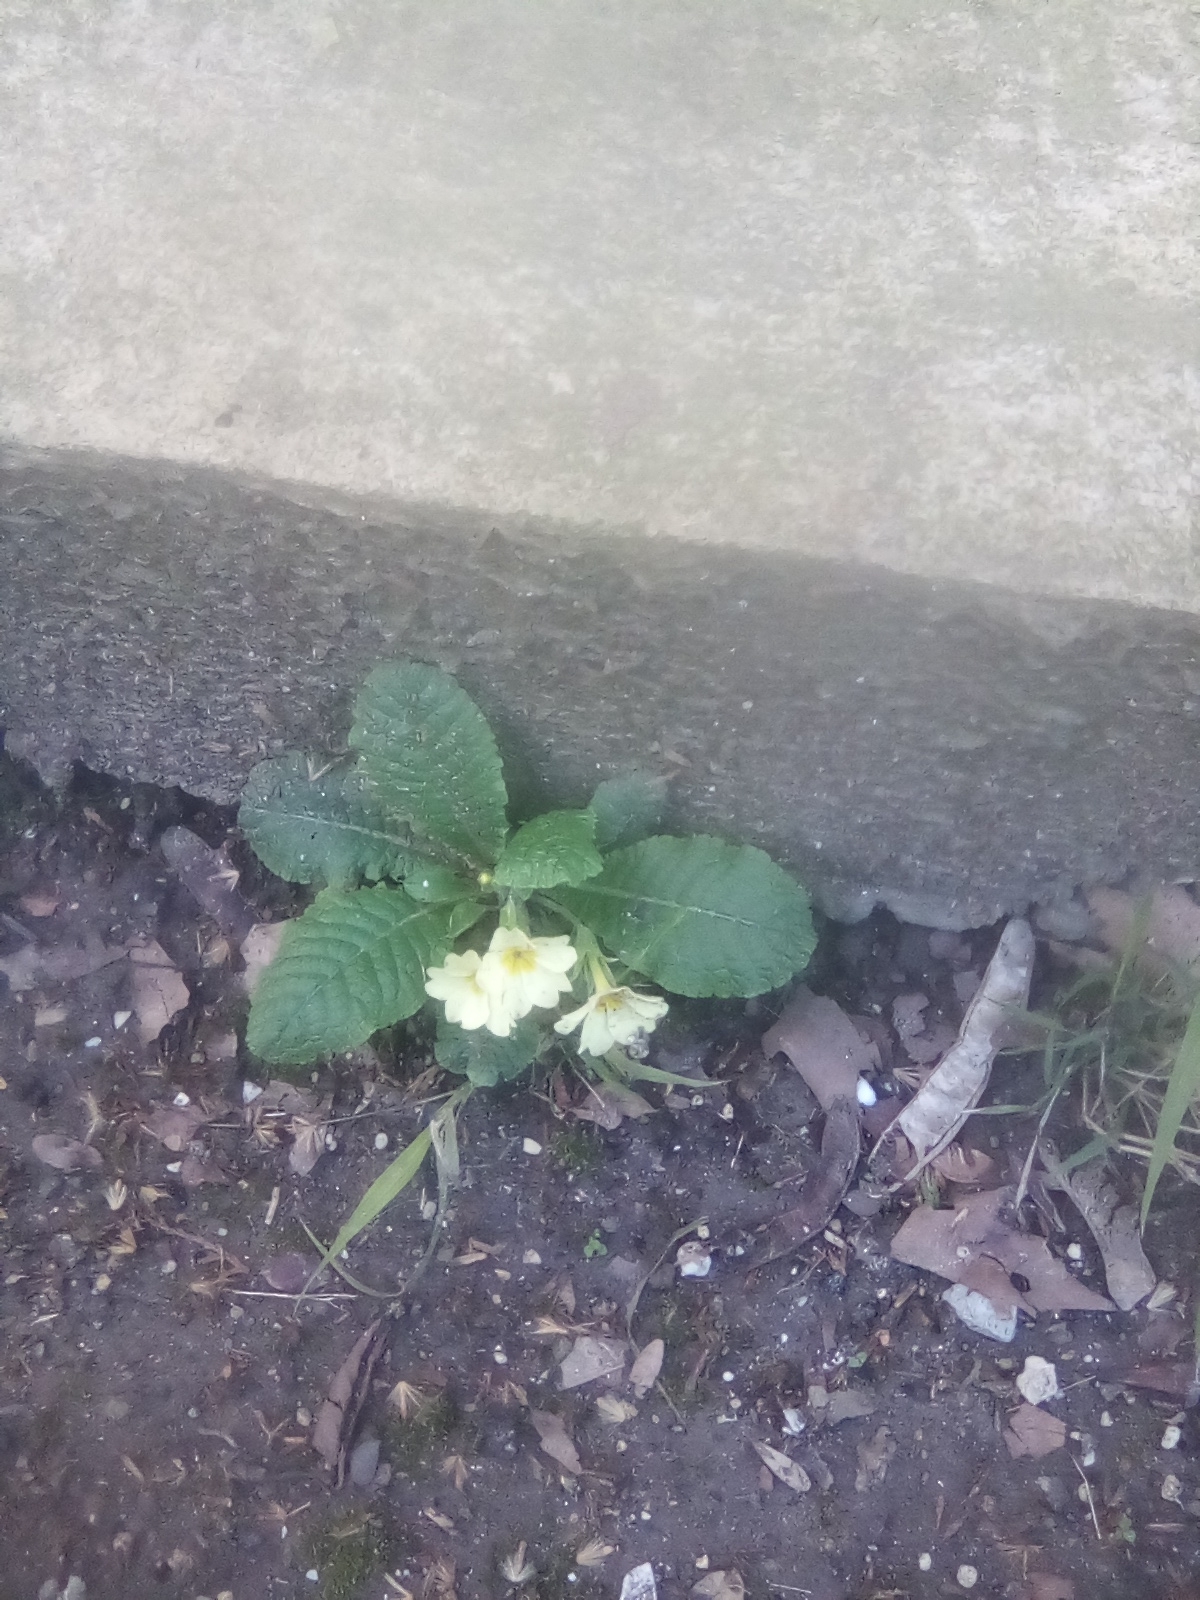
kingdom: Plantae
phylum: Tracheophyta
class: Magnoliopsida
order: Ericales
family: Primulaceae
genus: Primula
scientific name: Primula vulgaris
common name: Primrose
